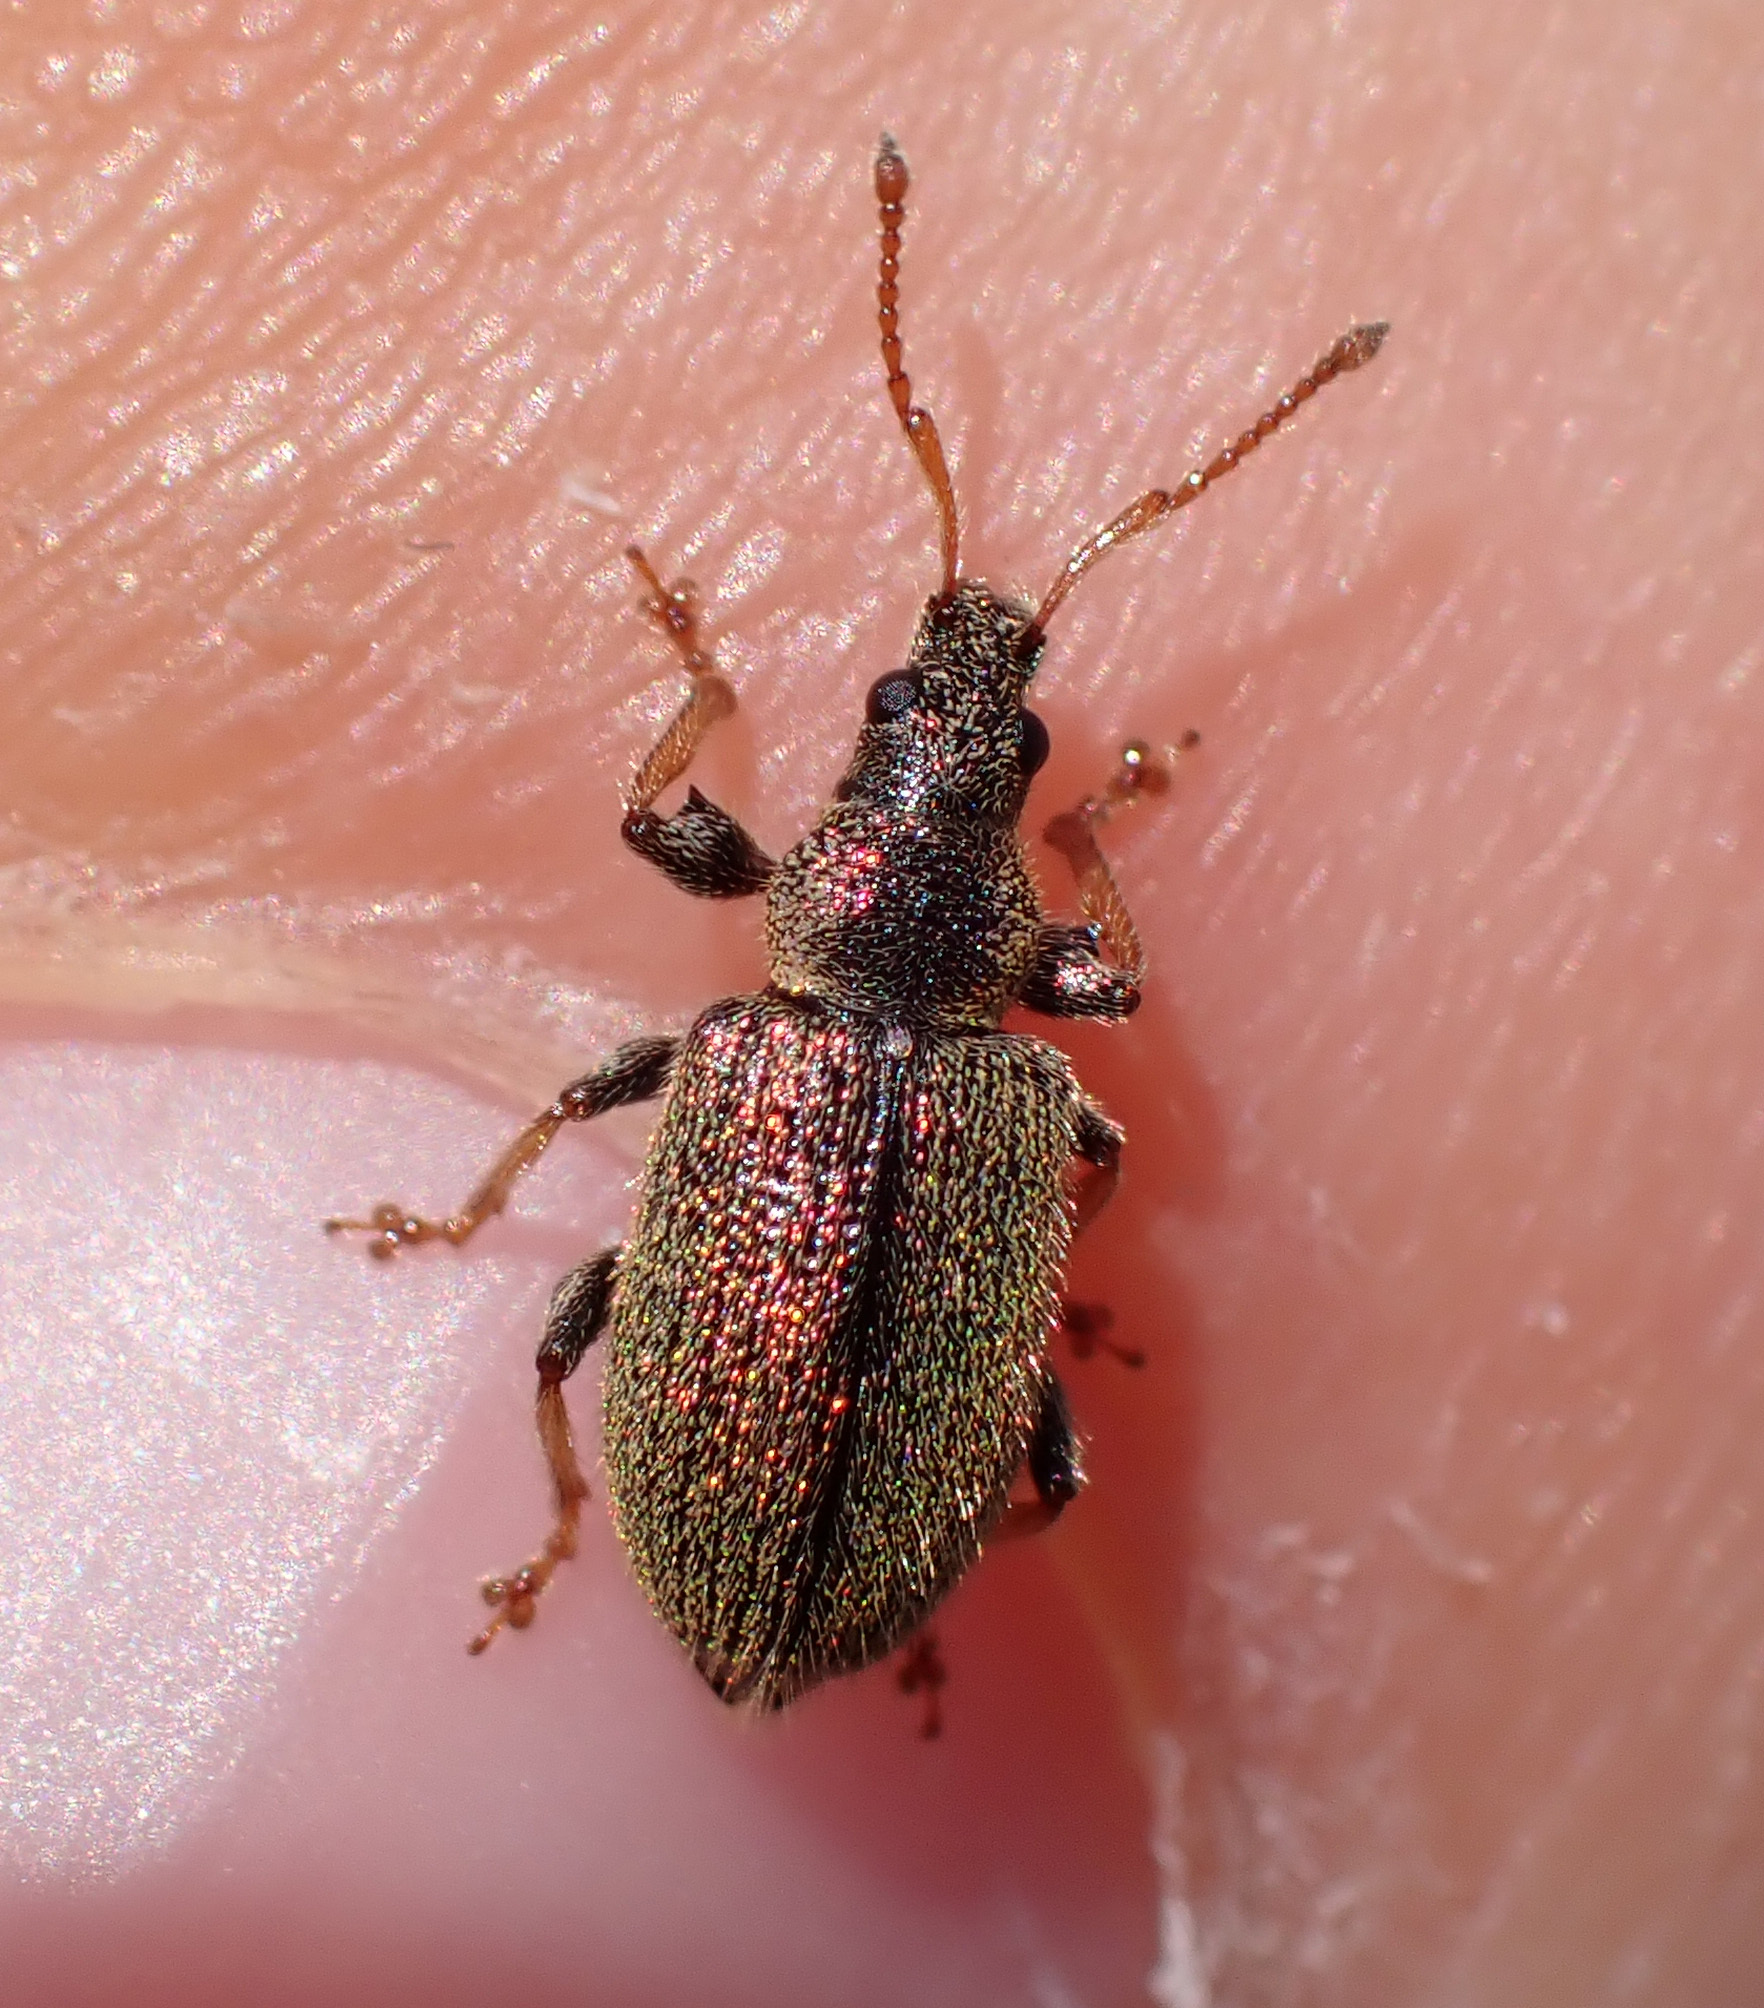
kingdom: Animalia
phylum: Arthropoda
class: Insecta
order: Coleoptera
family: Curculionidae
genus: Phyllobius
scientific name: Phyllobius betulinus
